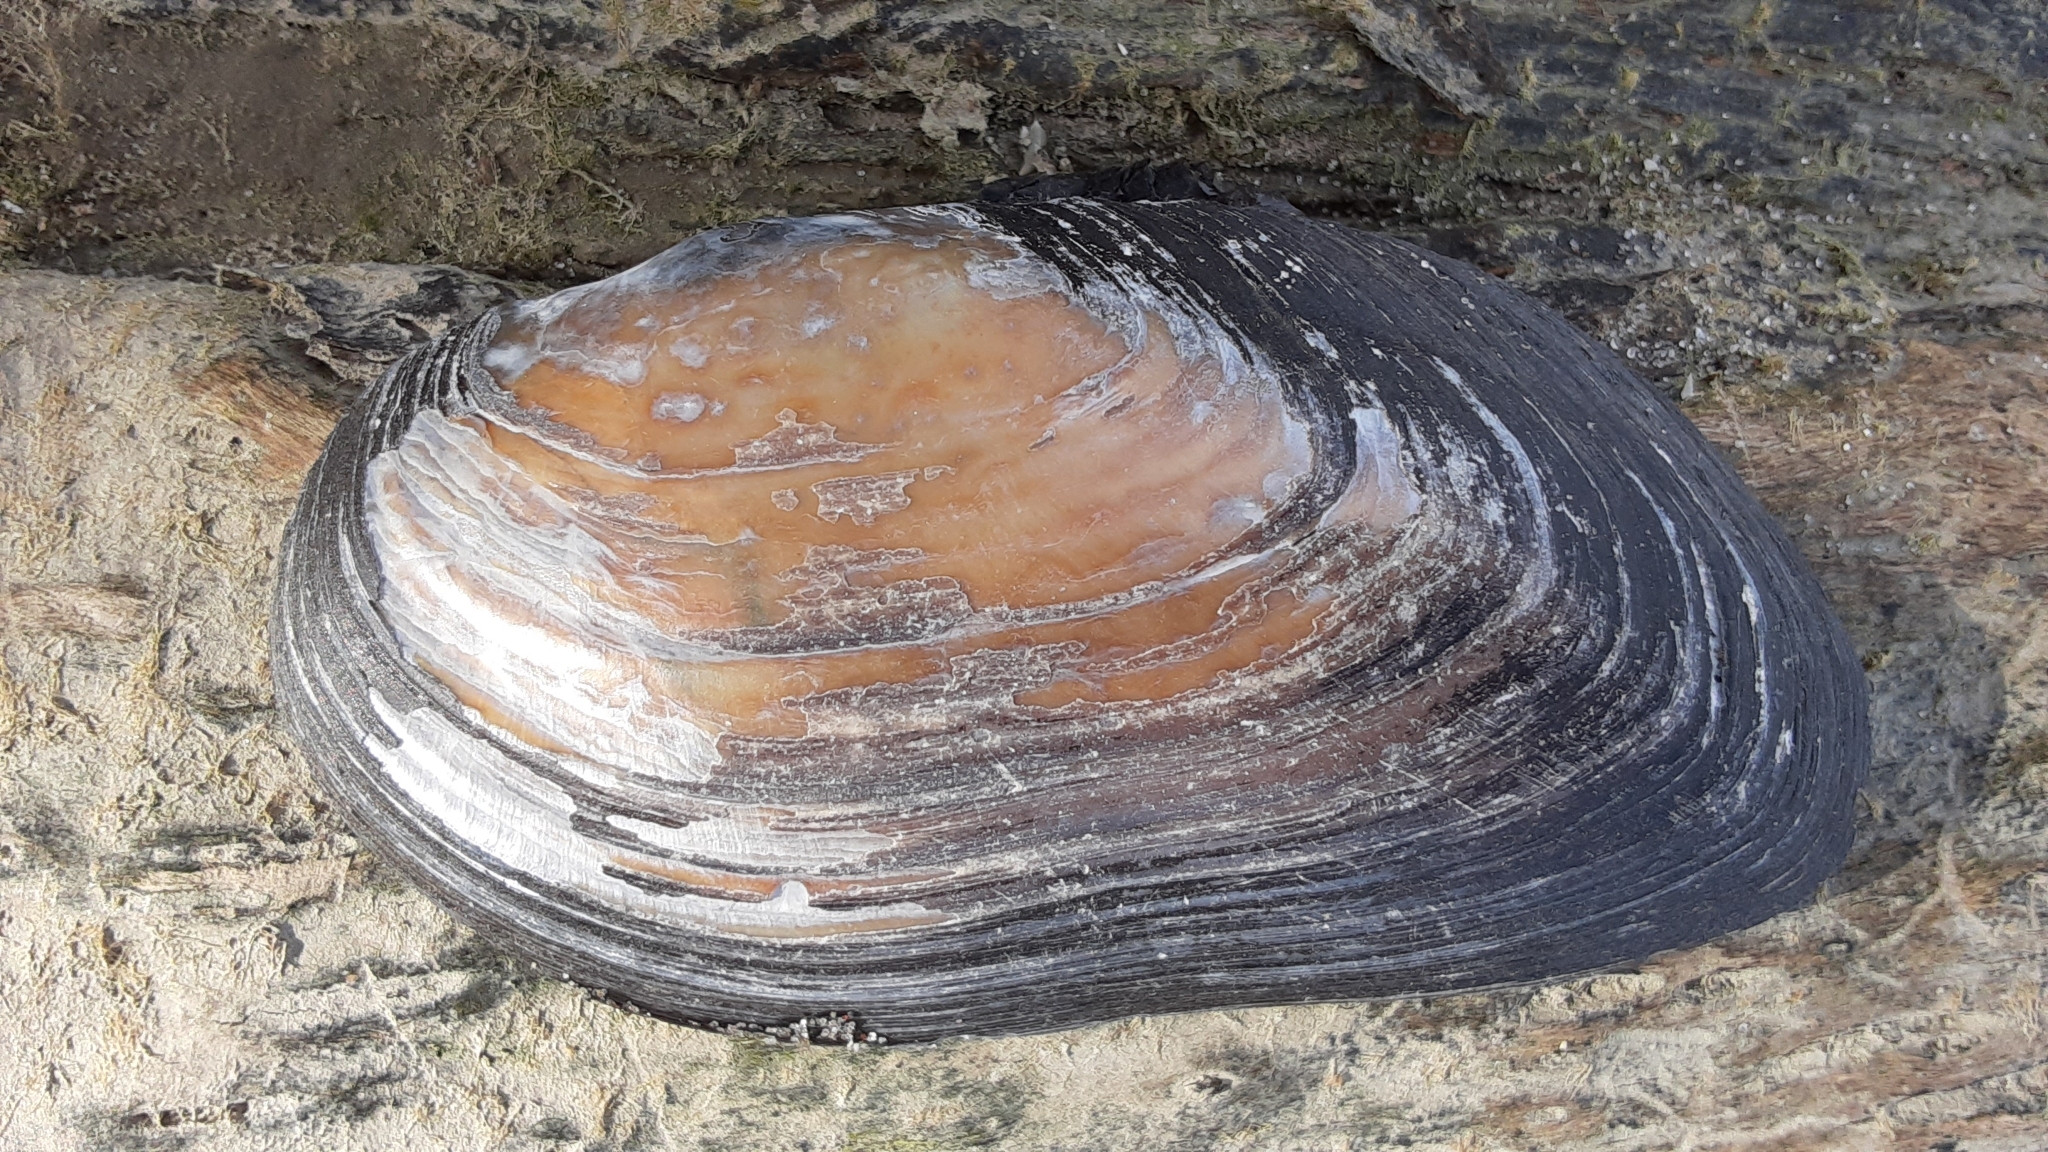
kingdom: Animalia
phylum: Mollusca
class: Bivalvia
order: Unionida
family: Unionidae
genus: Elliptio
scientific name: Elliptio complanata
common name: Eastern elliptio
